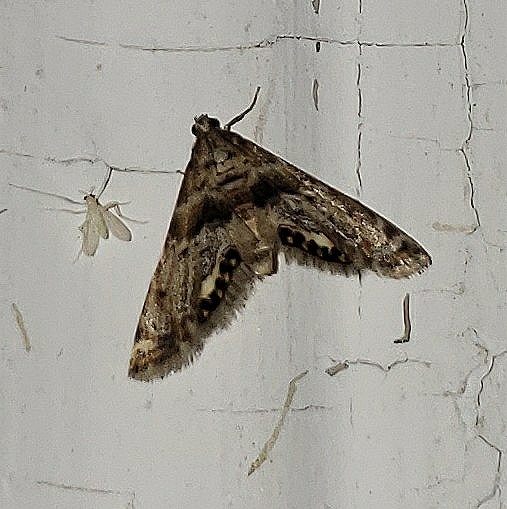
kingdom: Animalia
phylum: Arthropoda
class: Insecta
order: Lepidoptera
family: Crambidae
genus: Petrophila
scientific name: Petrophila fulicalis
